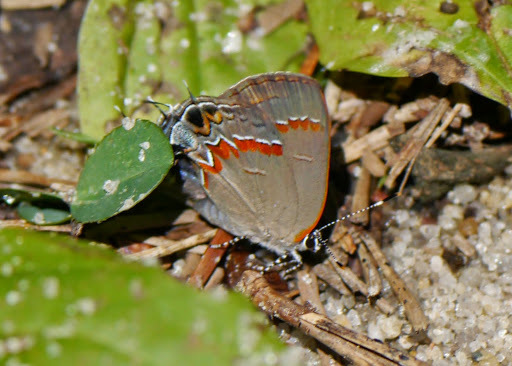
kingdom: Animalia
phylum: Arthropoda
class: Insecta
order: Lepidoptera
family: Lycaenidae
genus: Calycopis
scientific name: Calycopis cecrops
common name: Red-banded hairstreak
